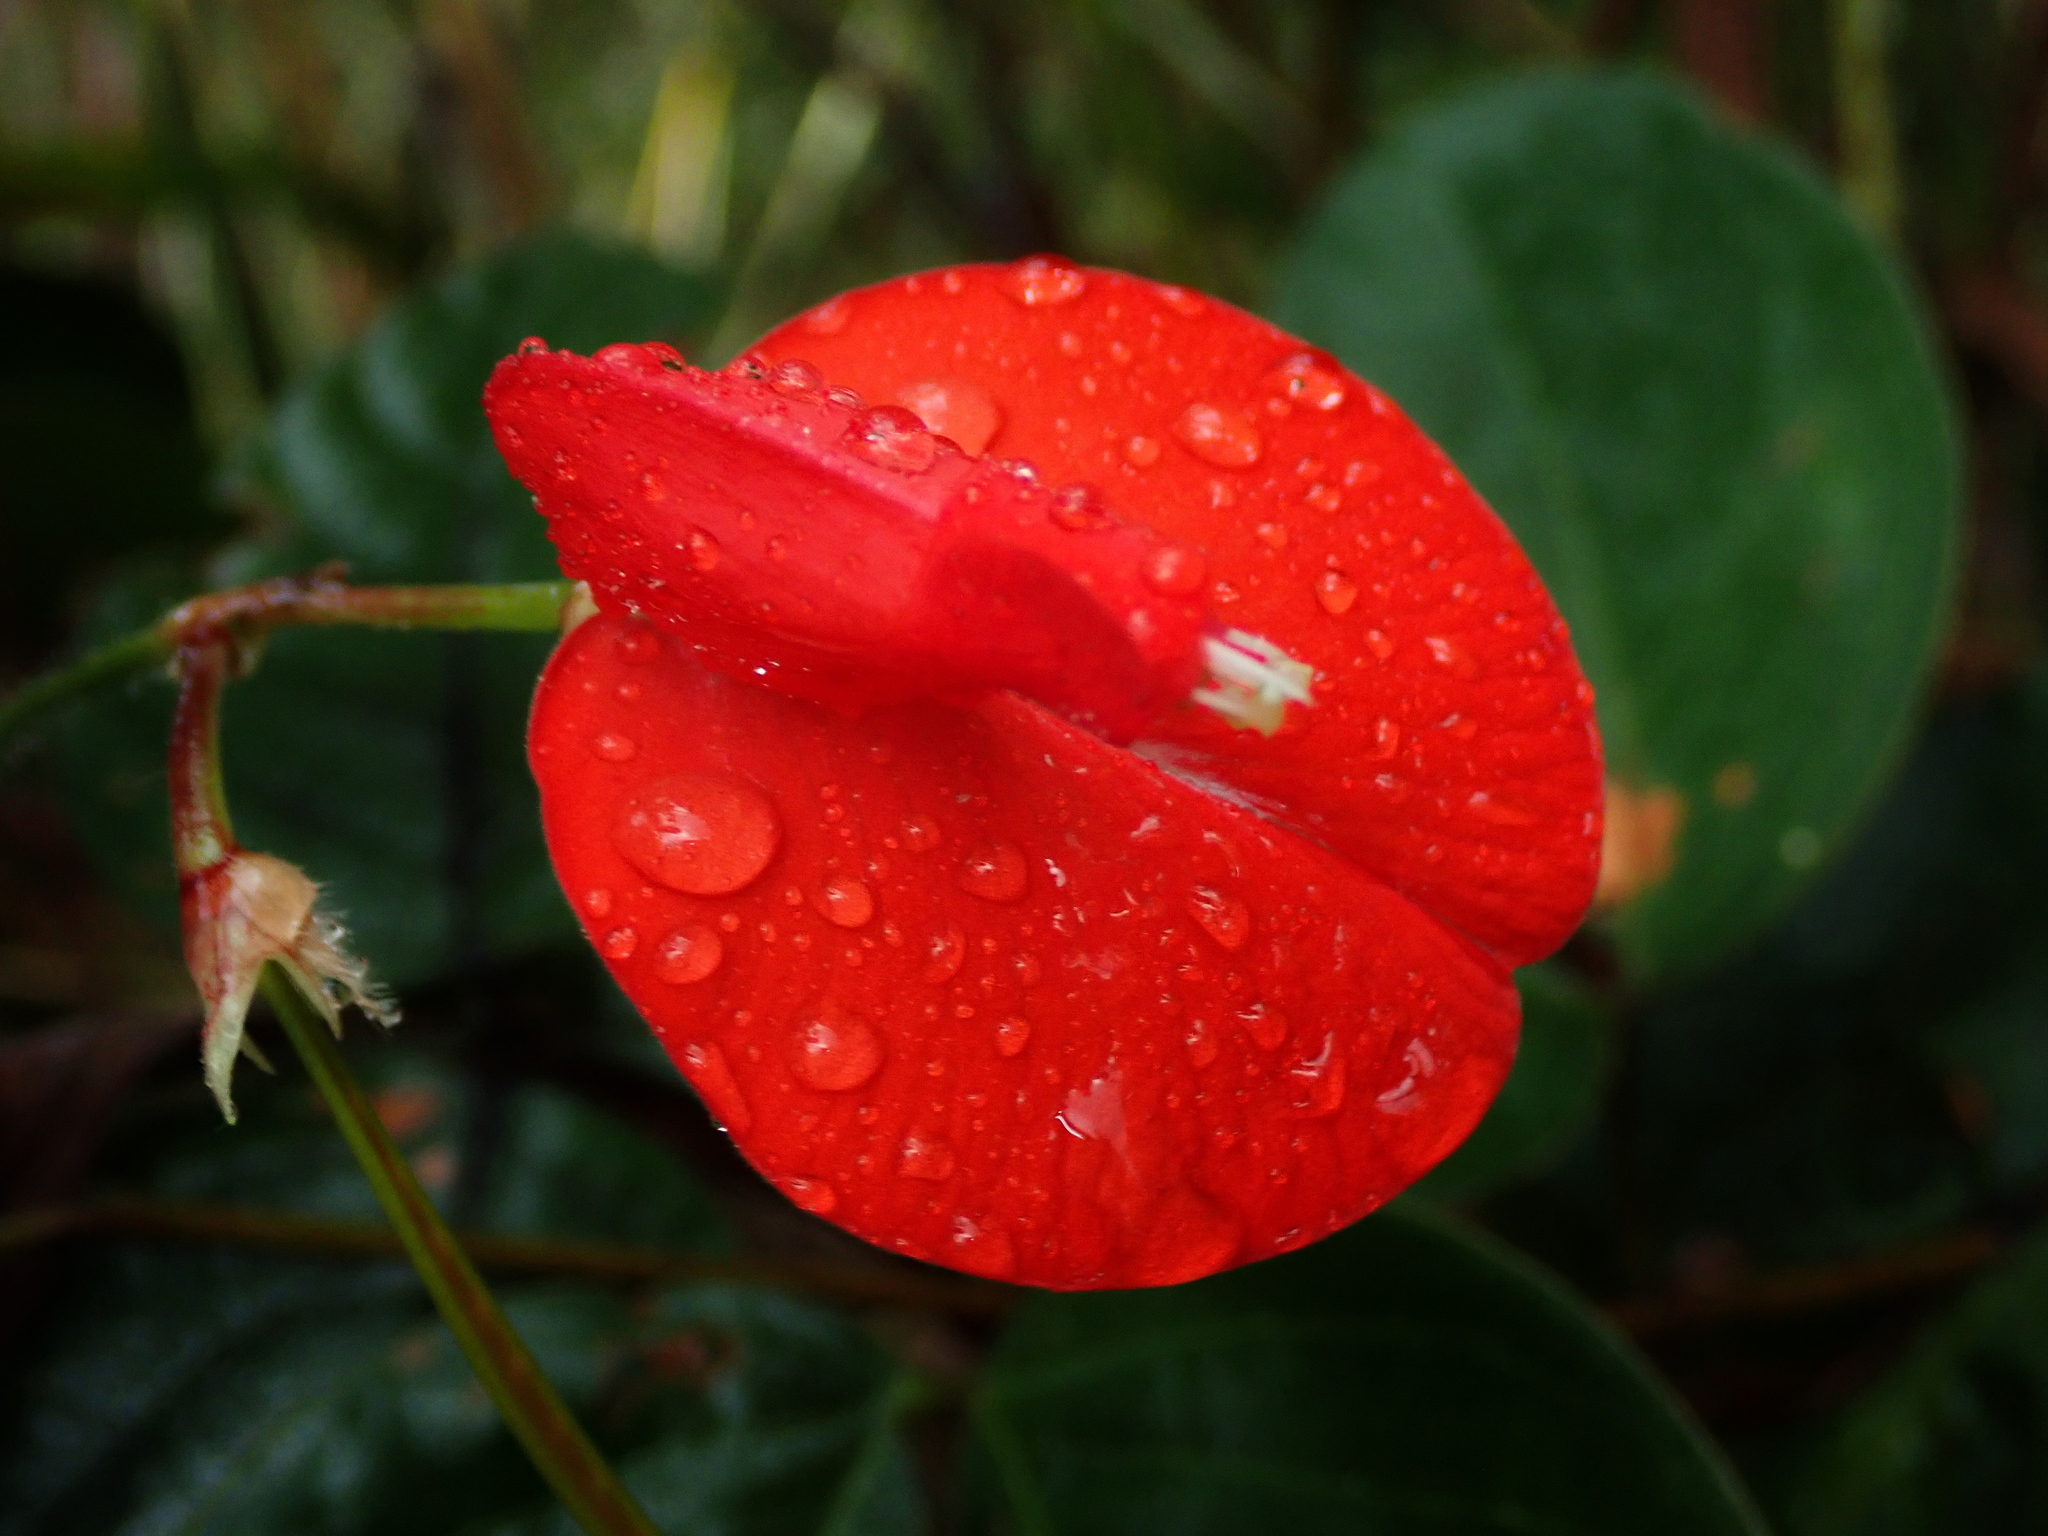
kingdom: Plantae
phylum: Tracheophyta
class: Magnoliopsida
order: Fabales
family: Fabaceae
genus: Periandra
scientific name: Periandra coccinea
